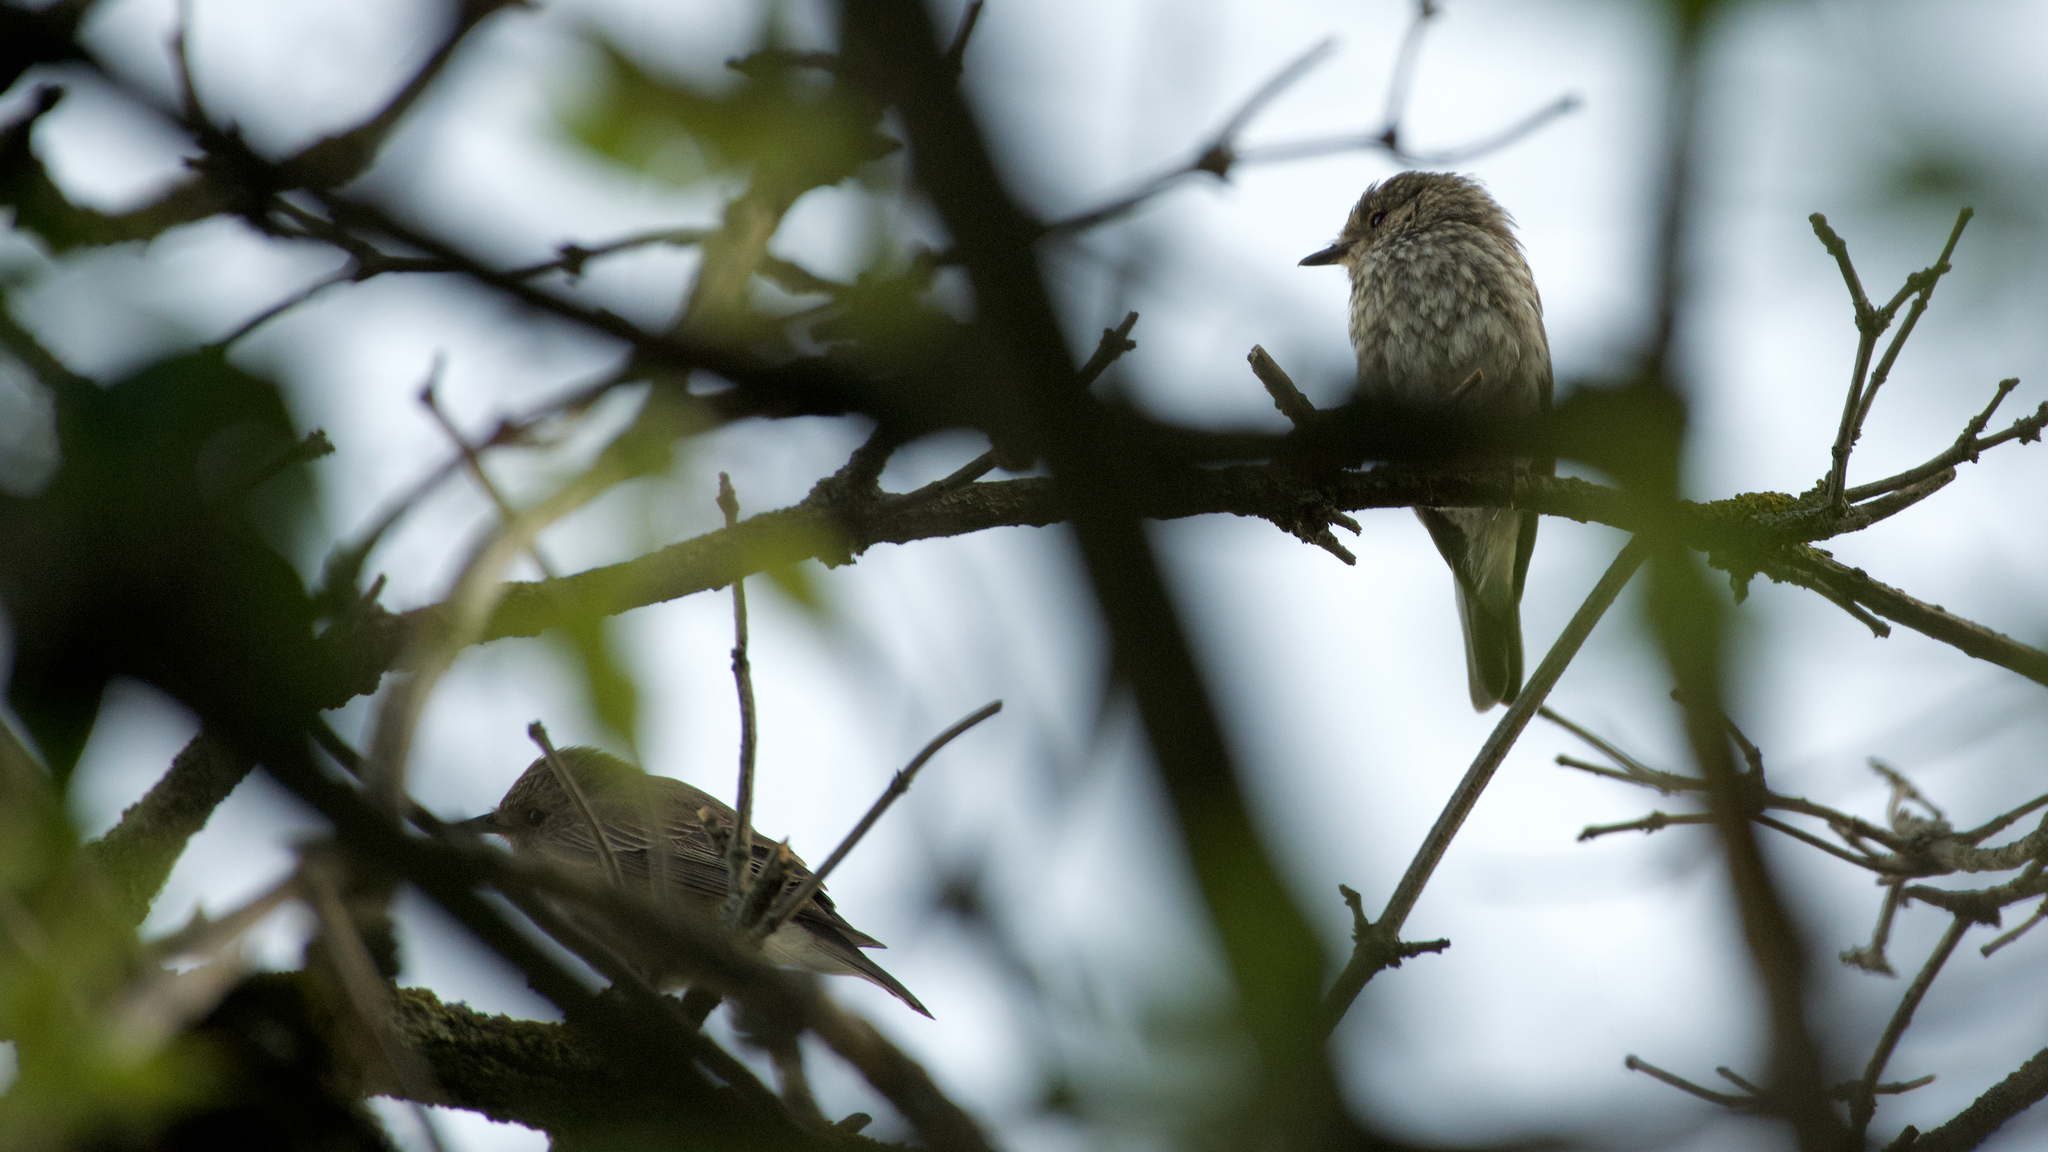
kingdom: Animalia
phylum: Chordata
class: Aves
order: Passeriformes
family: Muscicapidae
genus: Muscicapa
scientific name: Muscicapa striata
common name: Spotted flycatcher
